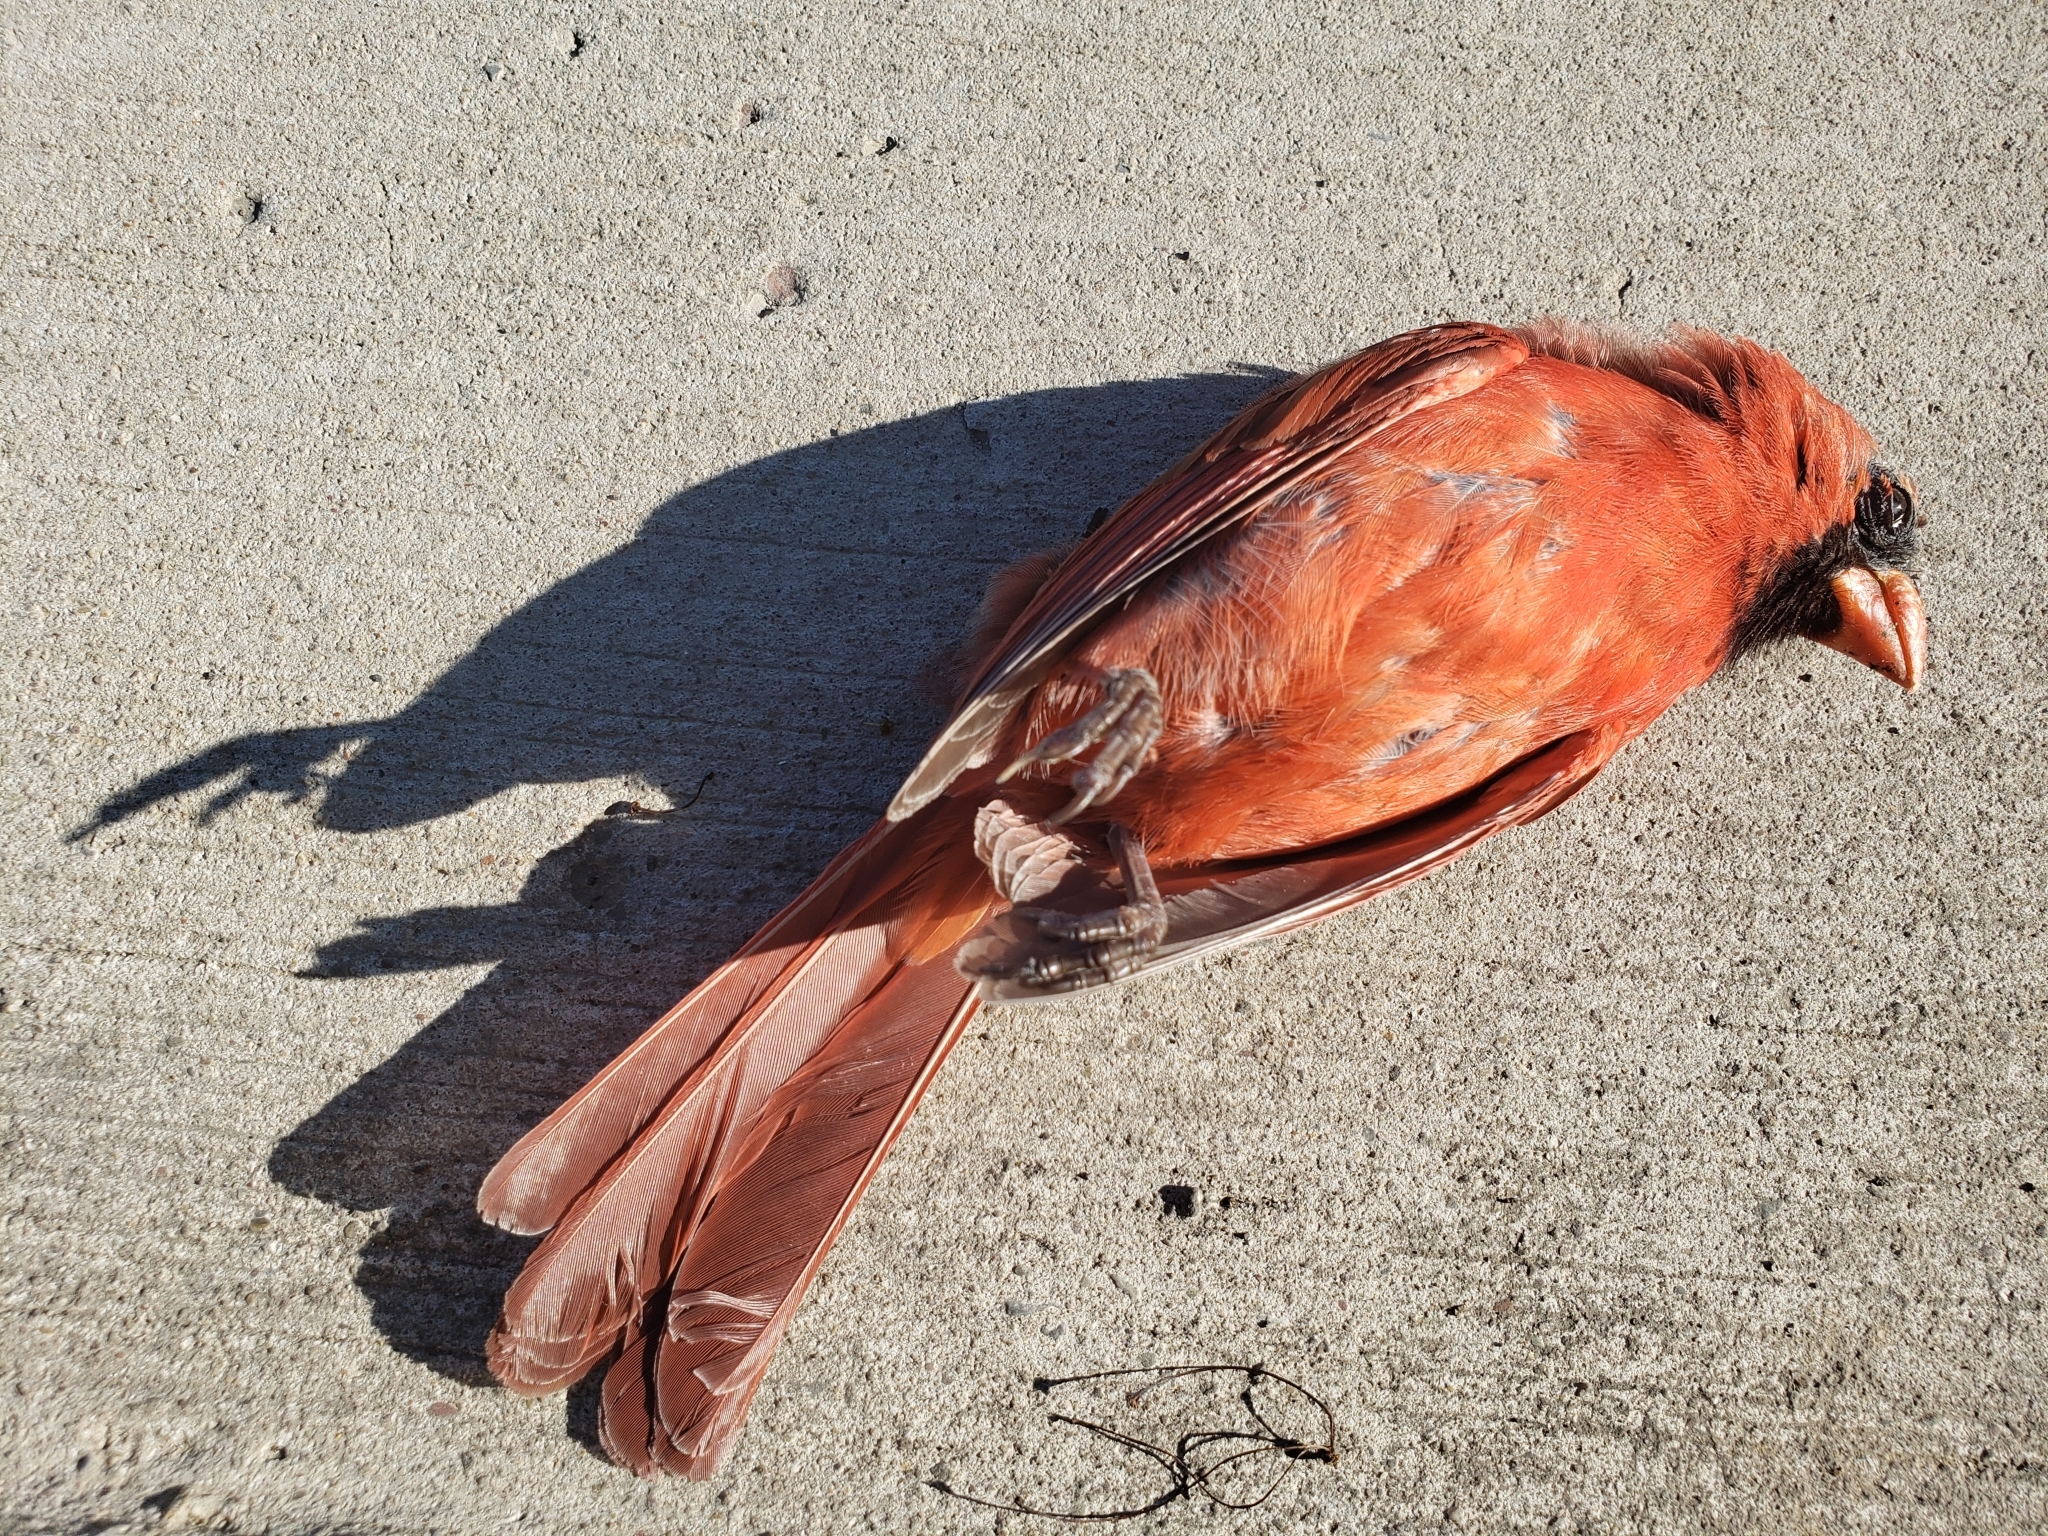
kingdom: Animalia
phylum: Chordata
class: Aves
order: Passeriformes
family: Cardinalidae
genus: Cardinalis
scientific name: Cardinalis cardinalis
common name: Northern cardinal
